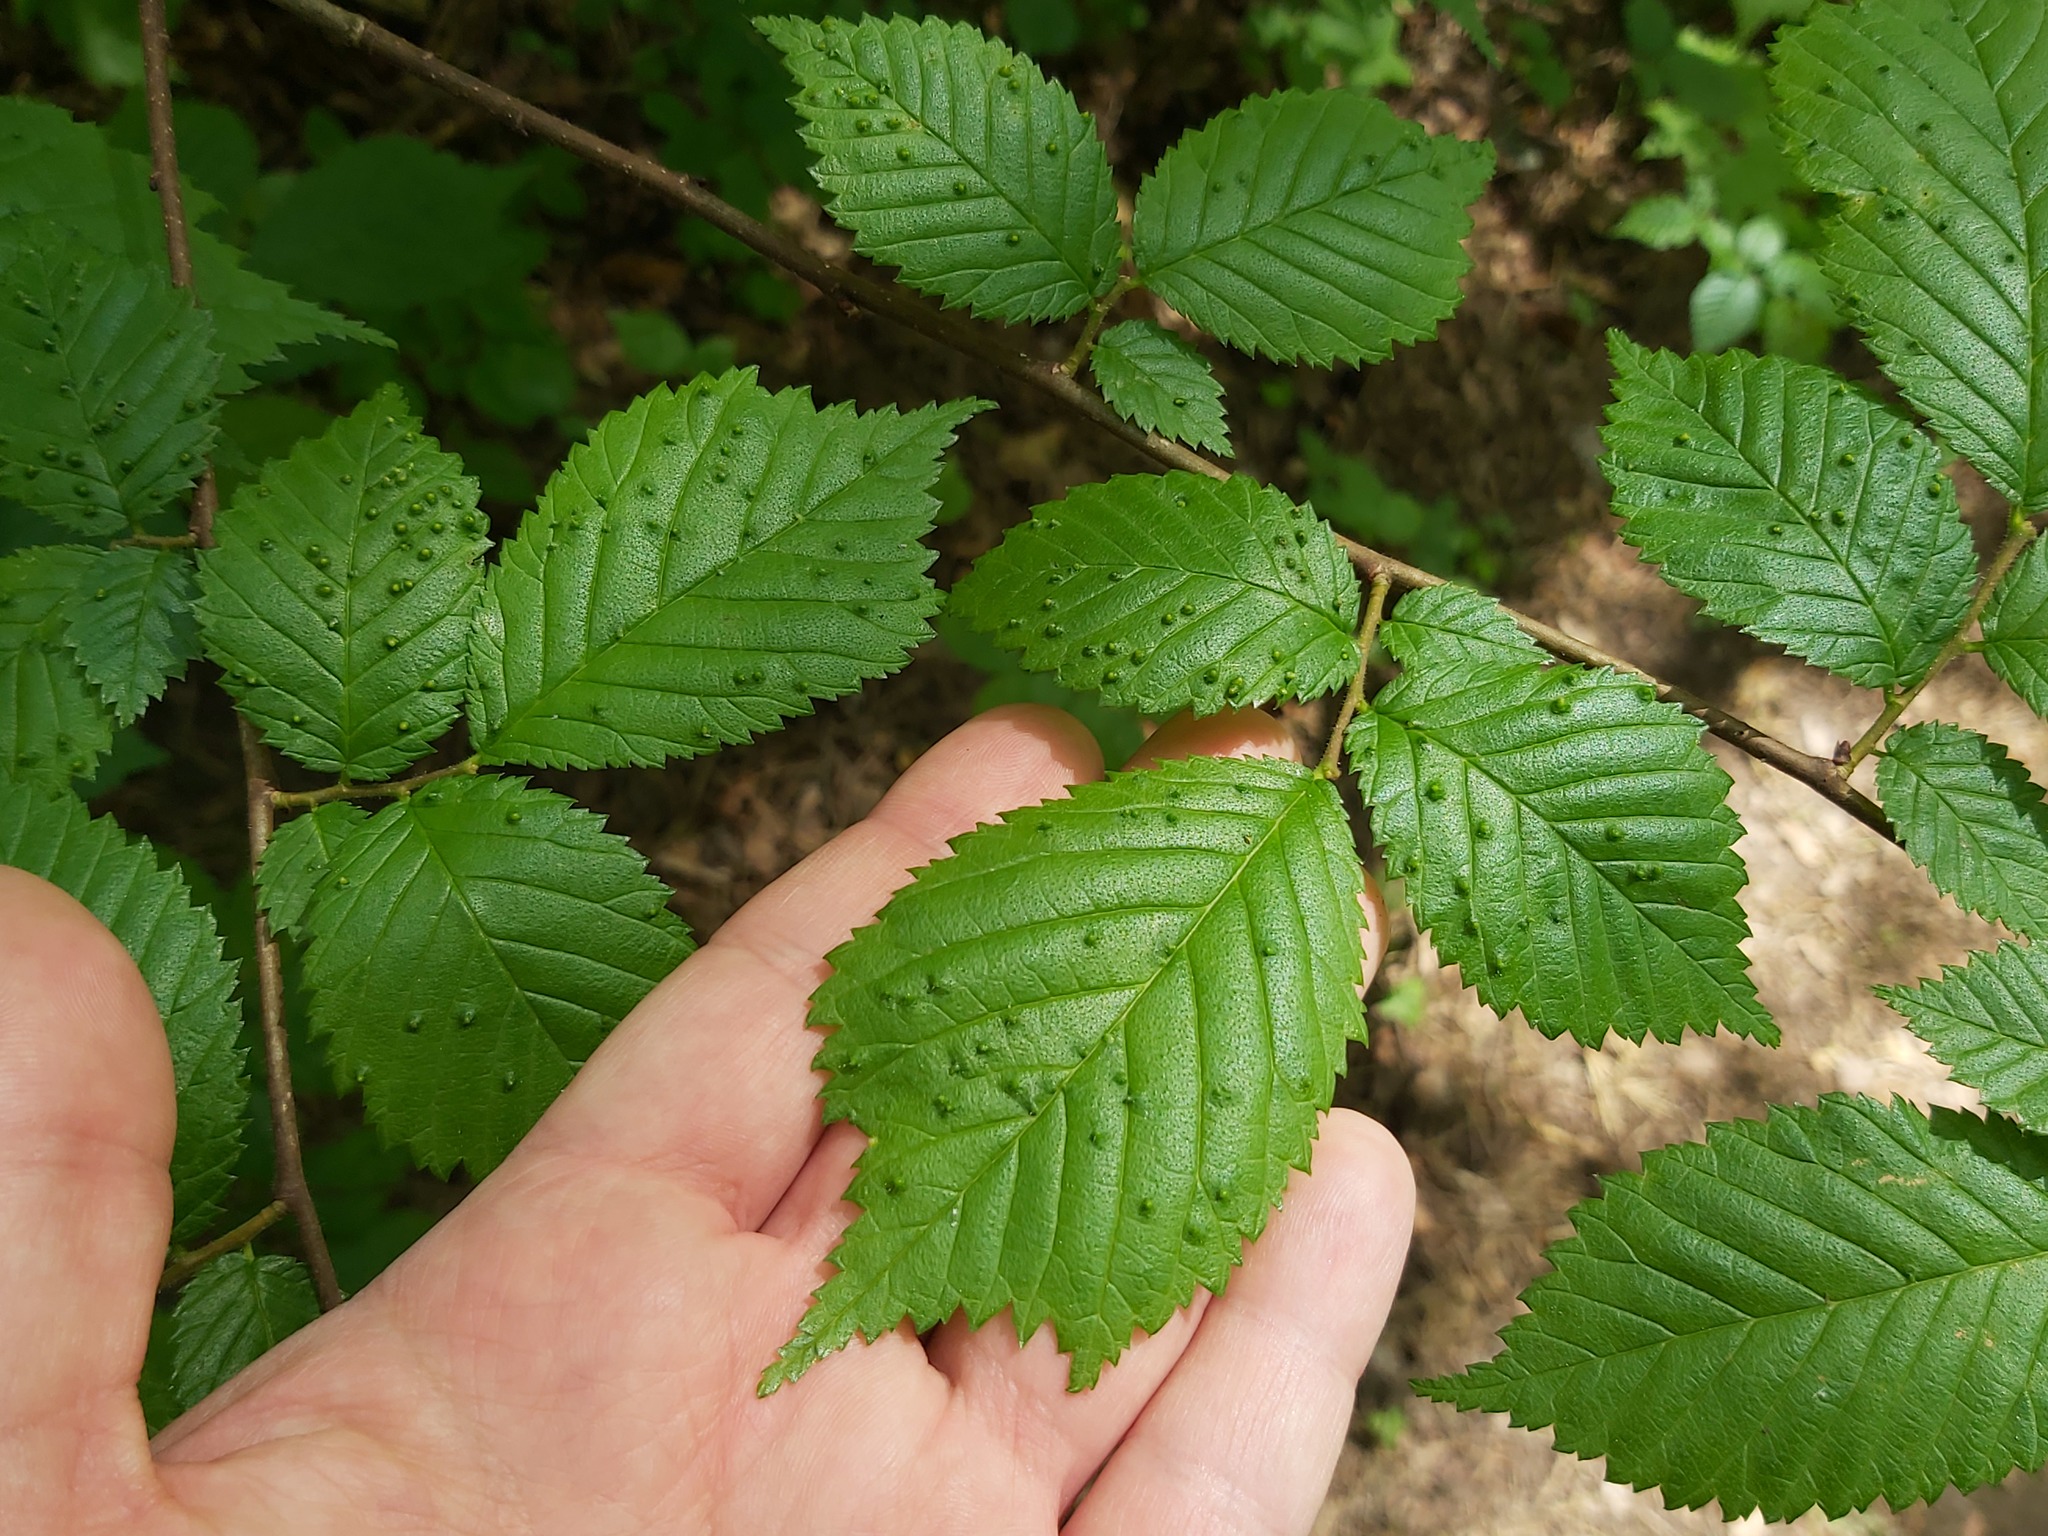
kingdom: Animalia
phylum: Arthropoda
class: Arachnida
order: Trombidiformes
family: Eriophyidae
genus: Aceria
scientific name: Aceria brevipunctata
